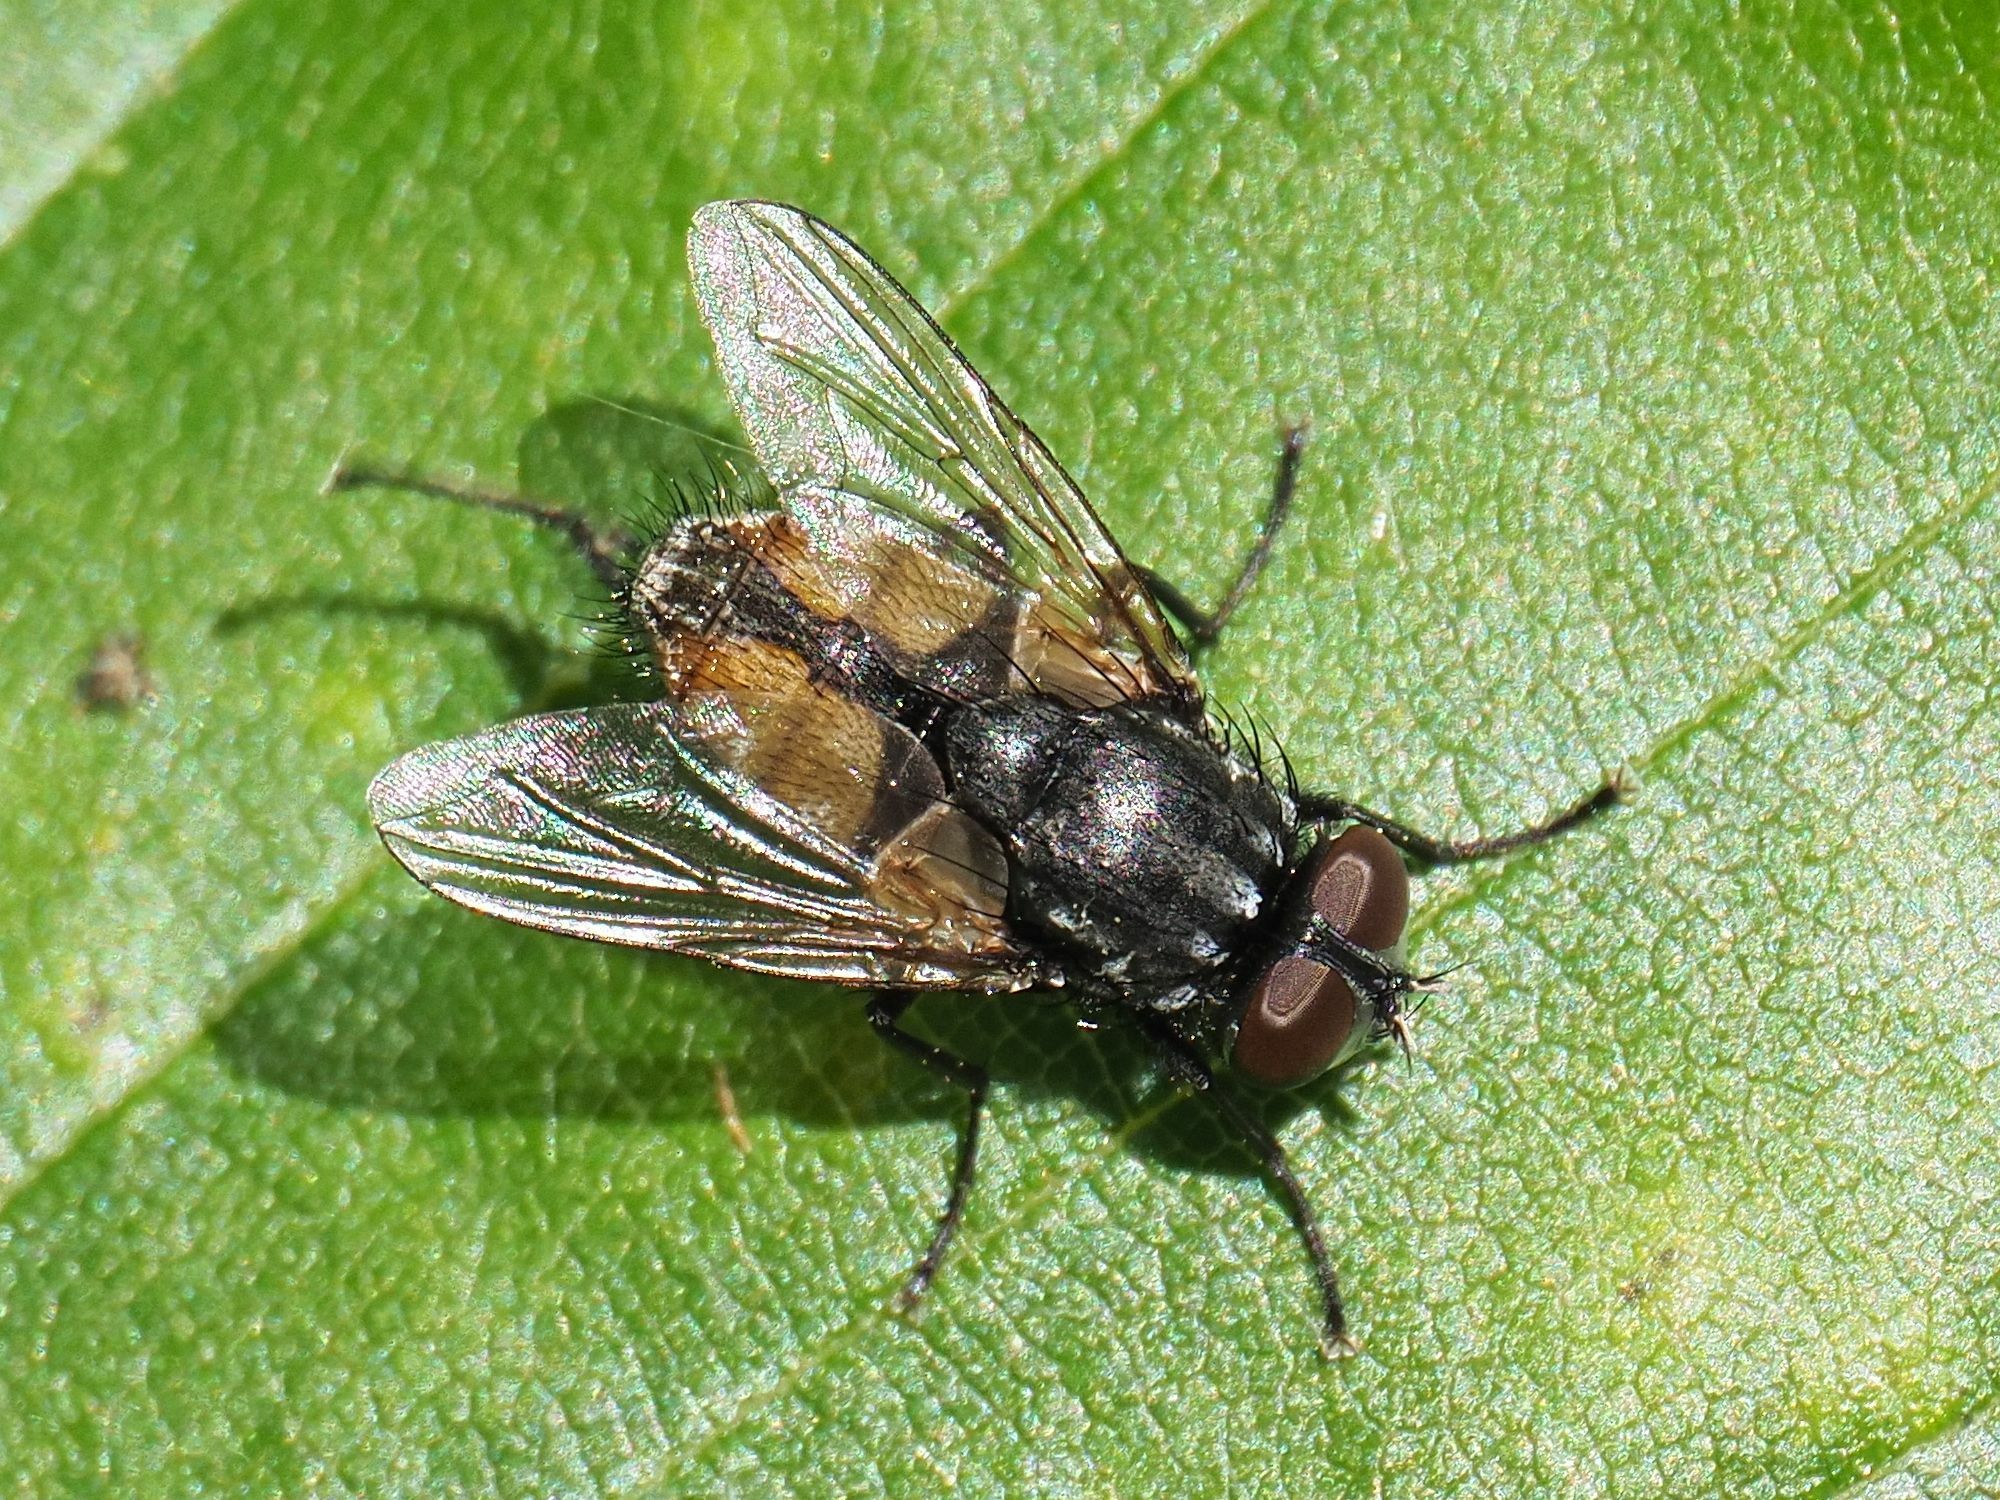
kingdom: Animalia
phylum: Arthropoda
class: Insecta
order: Diptera
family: Muscidae
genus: Musca
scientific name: Musca autumnalis
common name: Face fly
